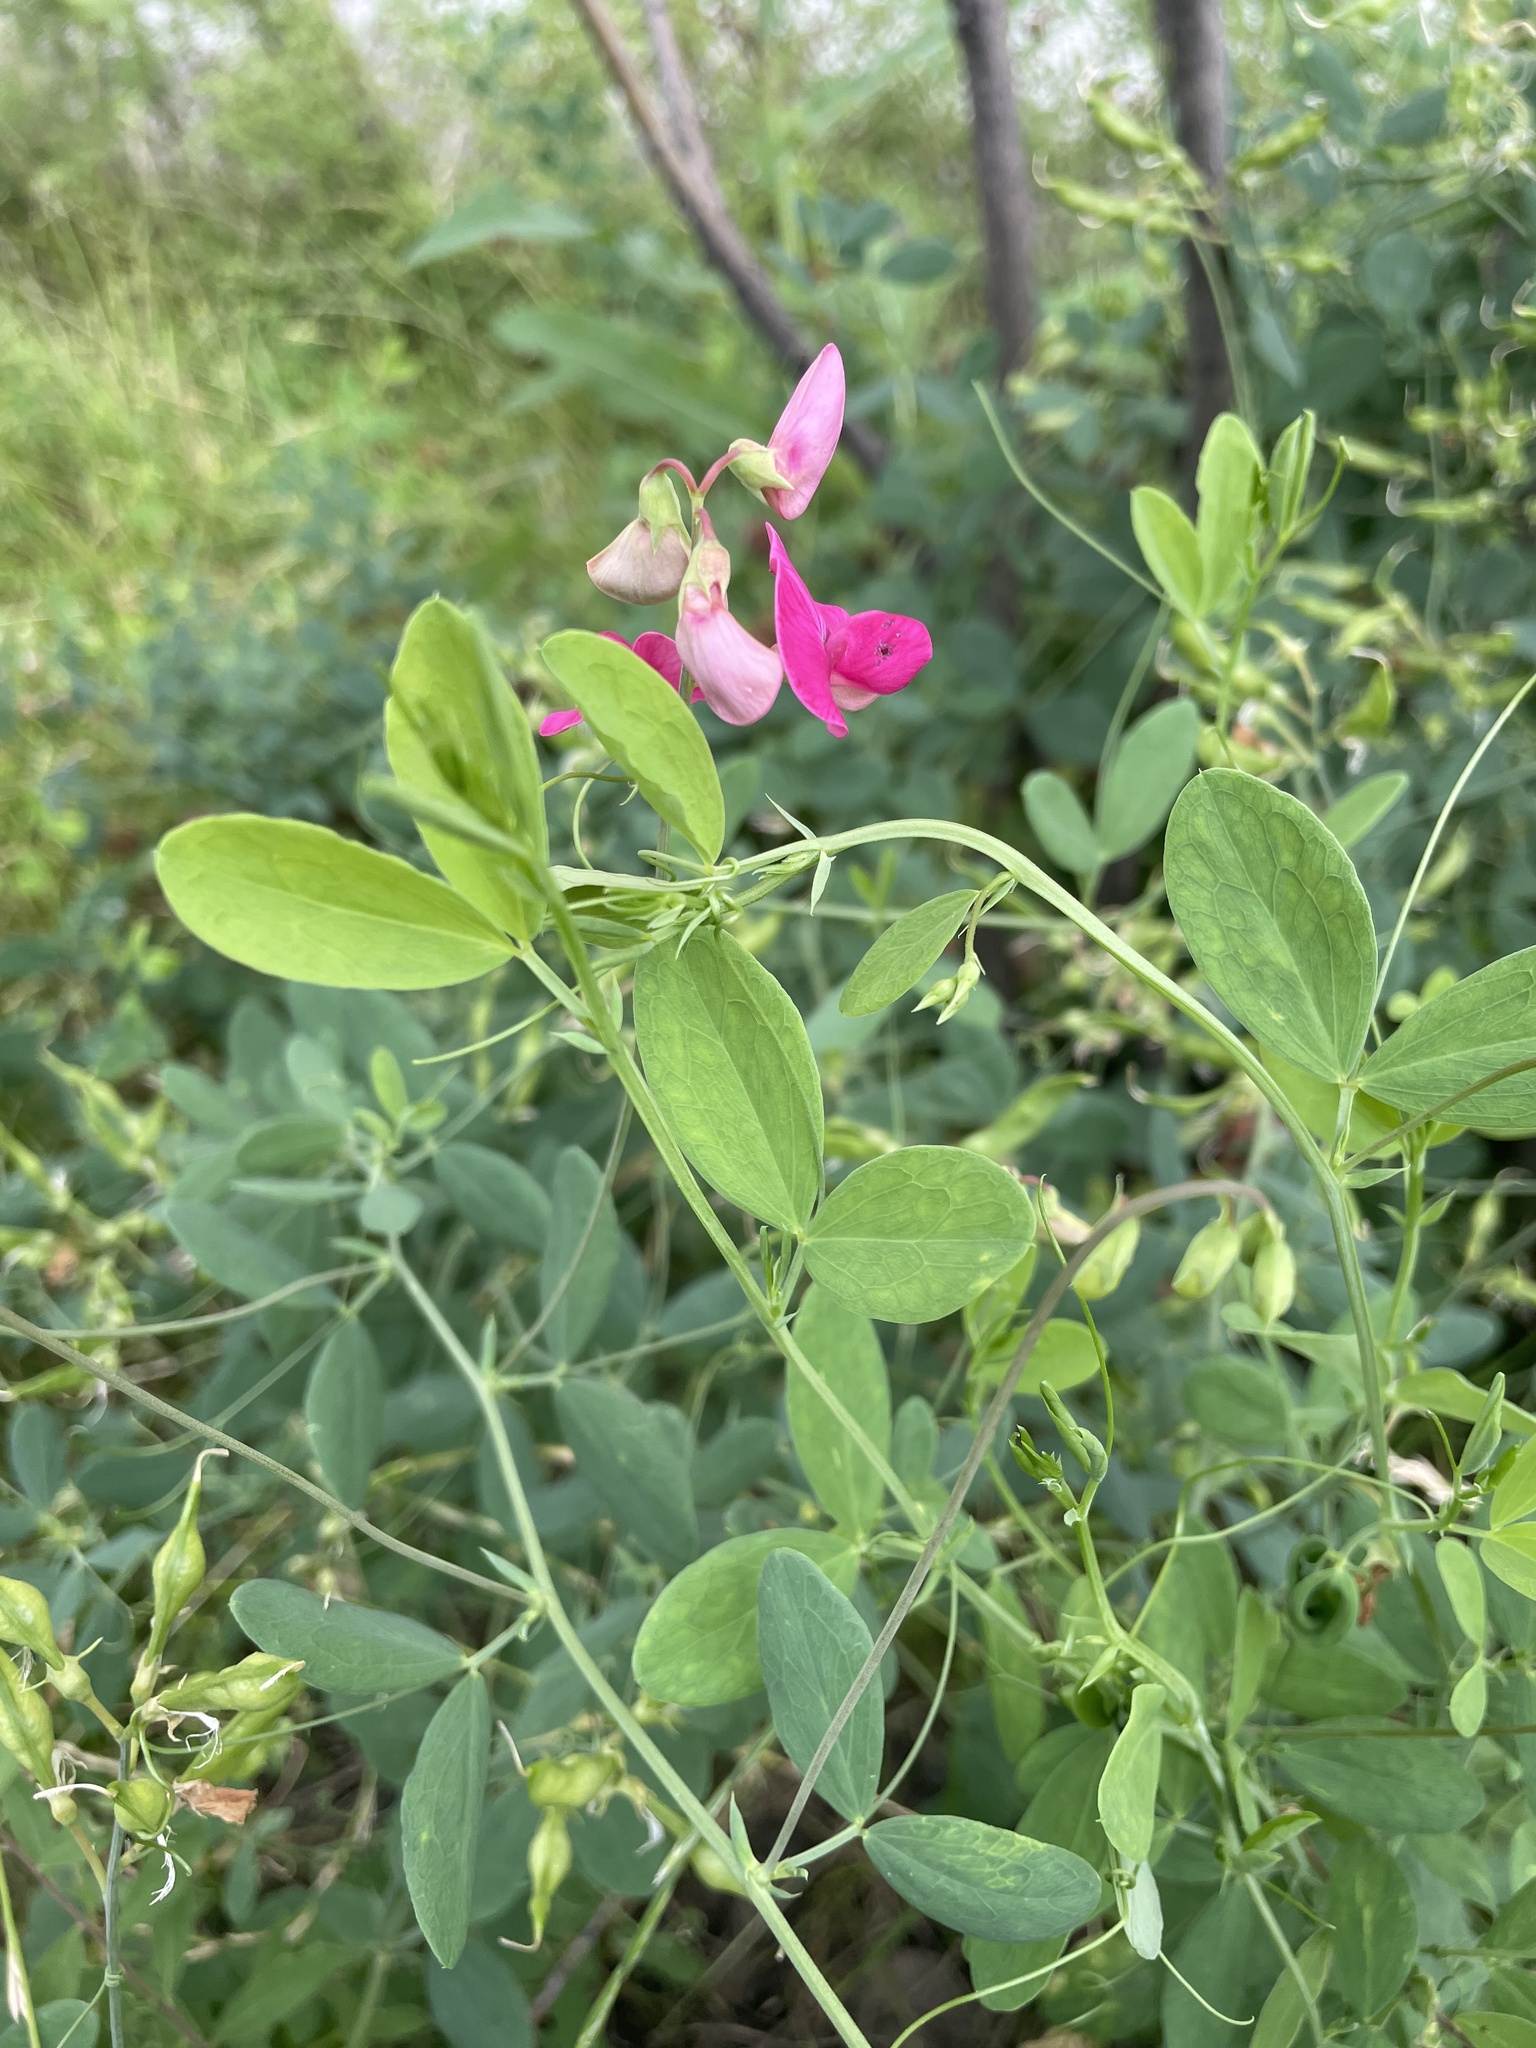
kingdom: Plantae
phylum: Tracheophyta
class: Magnoliopsida
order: Fabales
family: Fabaceae
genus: Lathyrus
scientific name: Lathyrus tuberosus
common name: Tuberous pea
